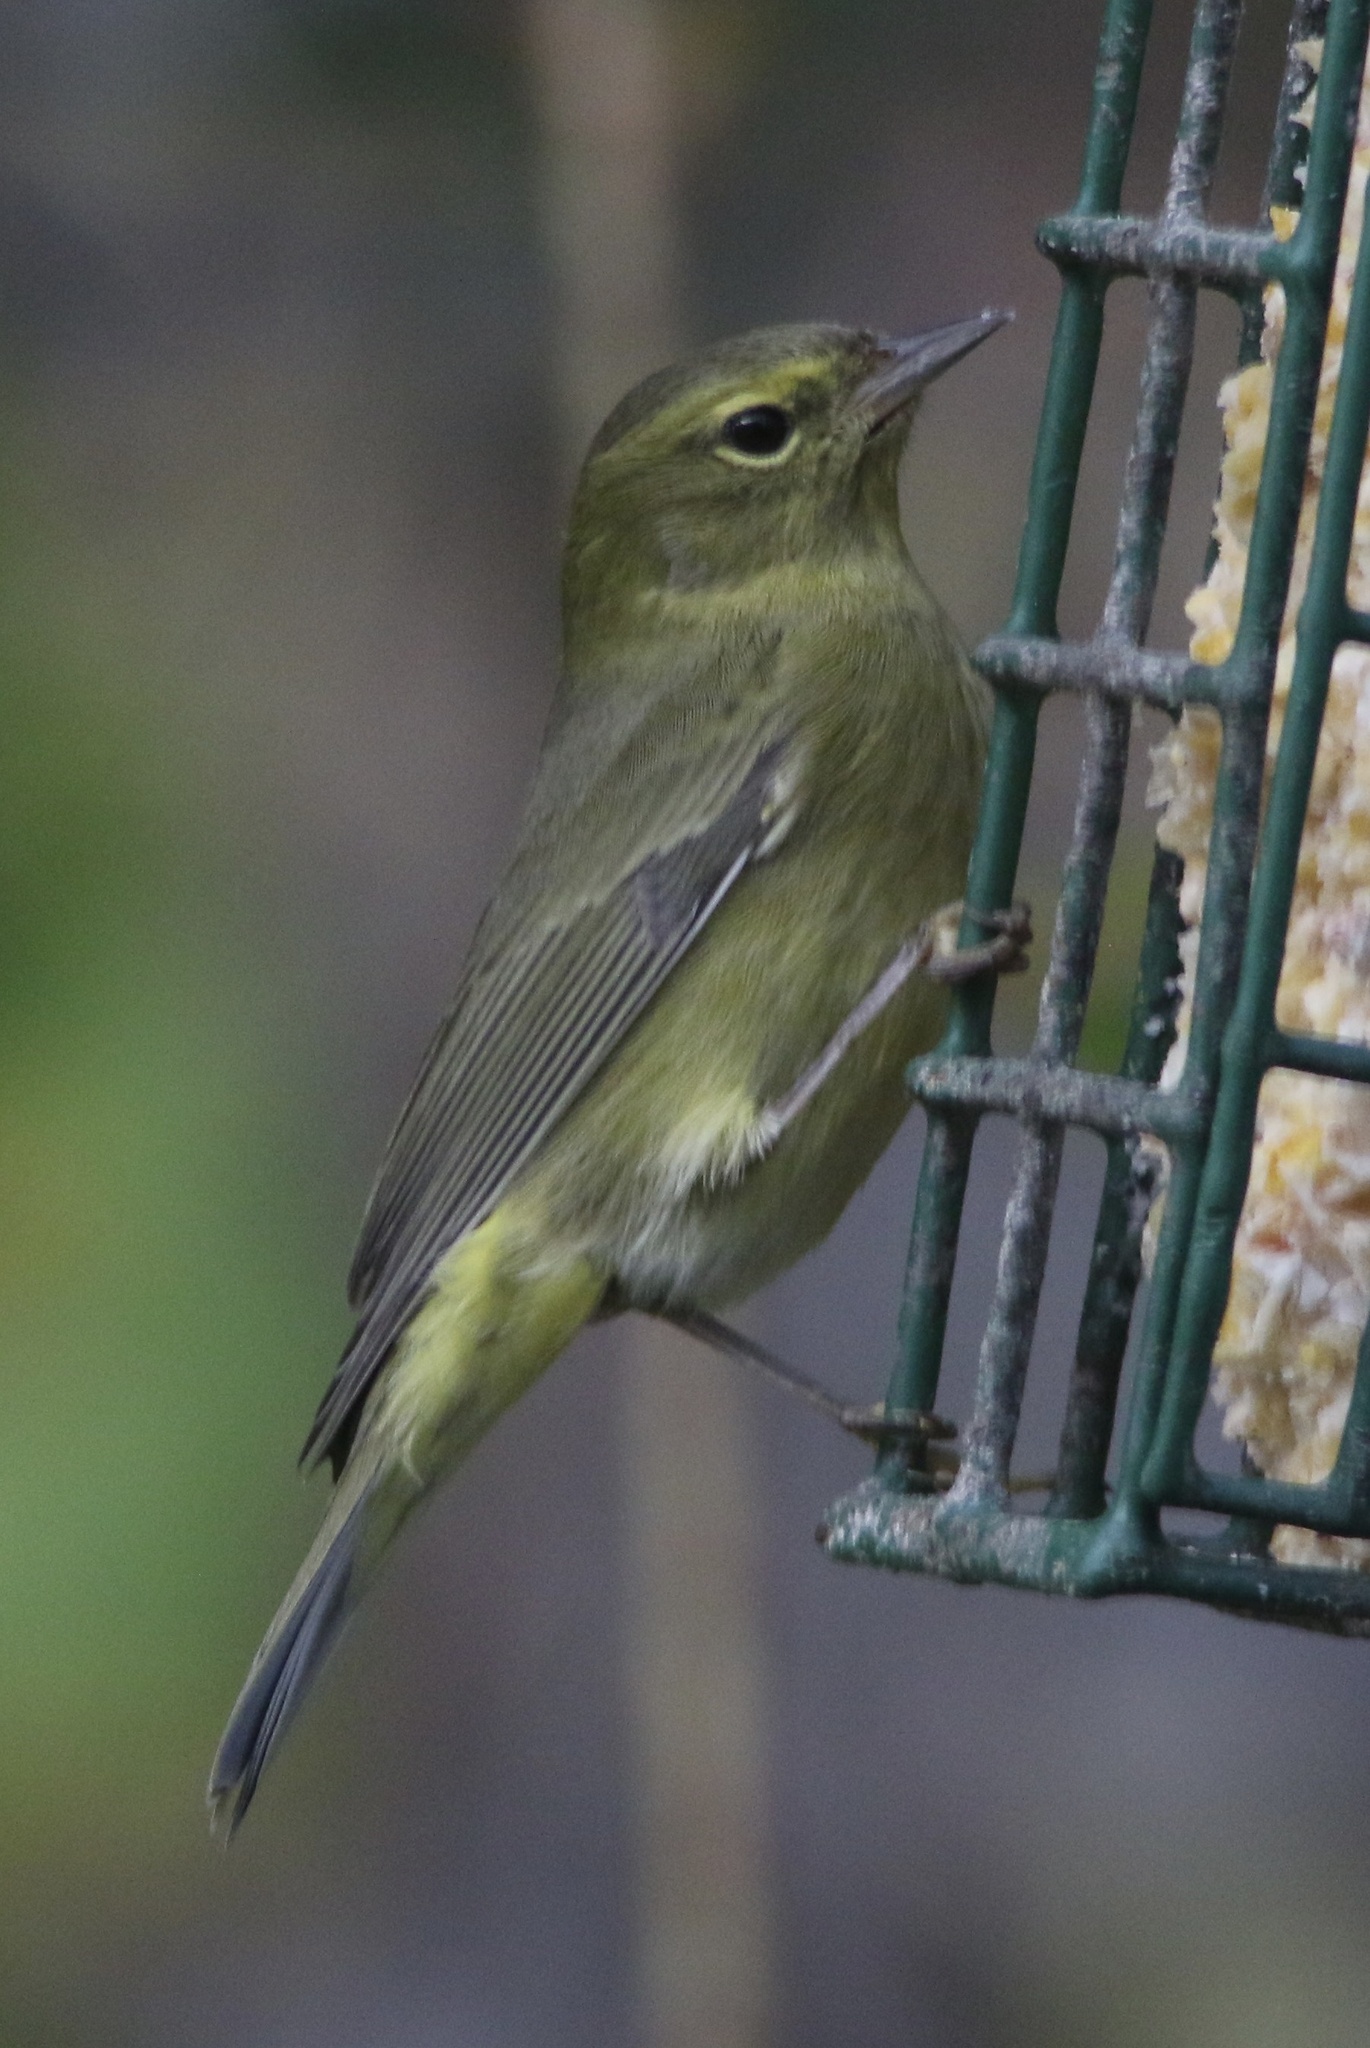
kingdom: Animalia
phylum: Chordata
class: Aves
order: Passeriformes
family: Parulidae
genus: Leiothlypis
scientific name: Leiothlypis celata
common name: Orange-crowned warbler
